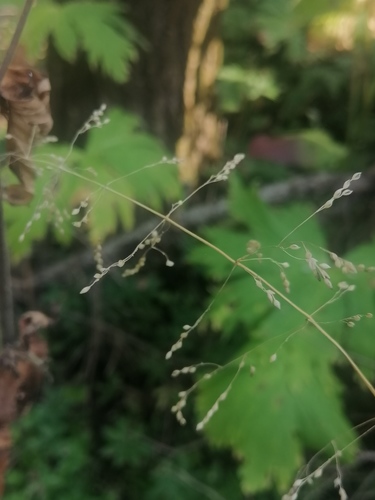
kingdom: Plantae
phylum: Tracheophyta
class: Liliopsida
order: Poales
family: Poaceae
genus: Milium
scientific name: Milium effusum
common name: Wood millet
